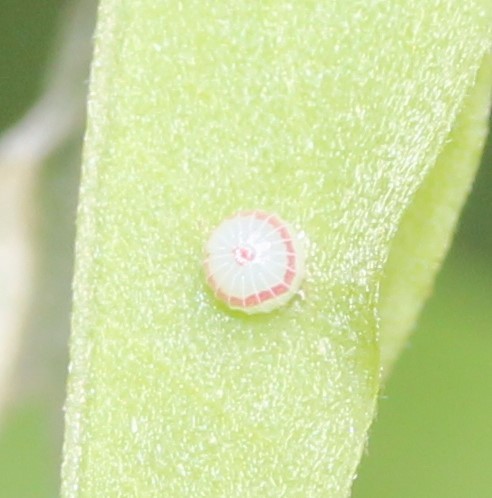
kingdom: Animalia
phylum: Arthropoda
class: Insecta
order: Lepidoptera
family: Hesperiidae
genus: Epargyreus
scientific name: Epargyreus clarus
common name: Silver-spotted skipper
